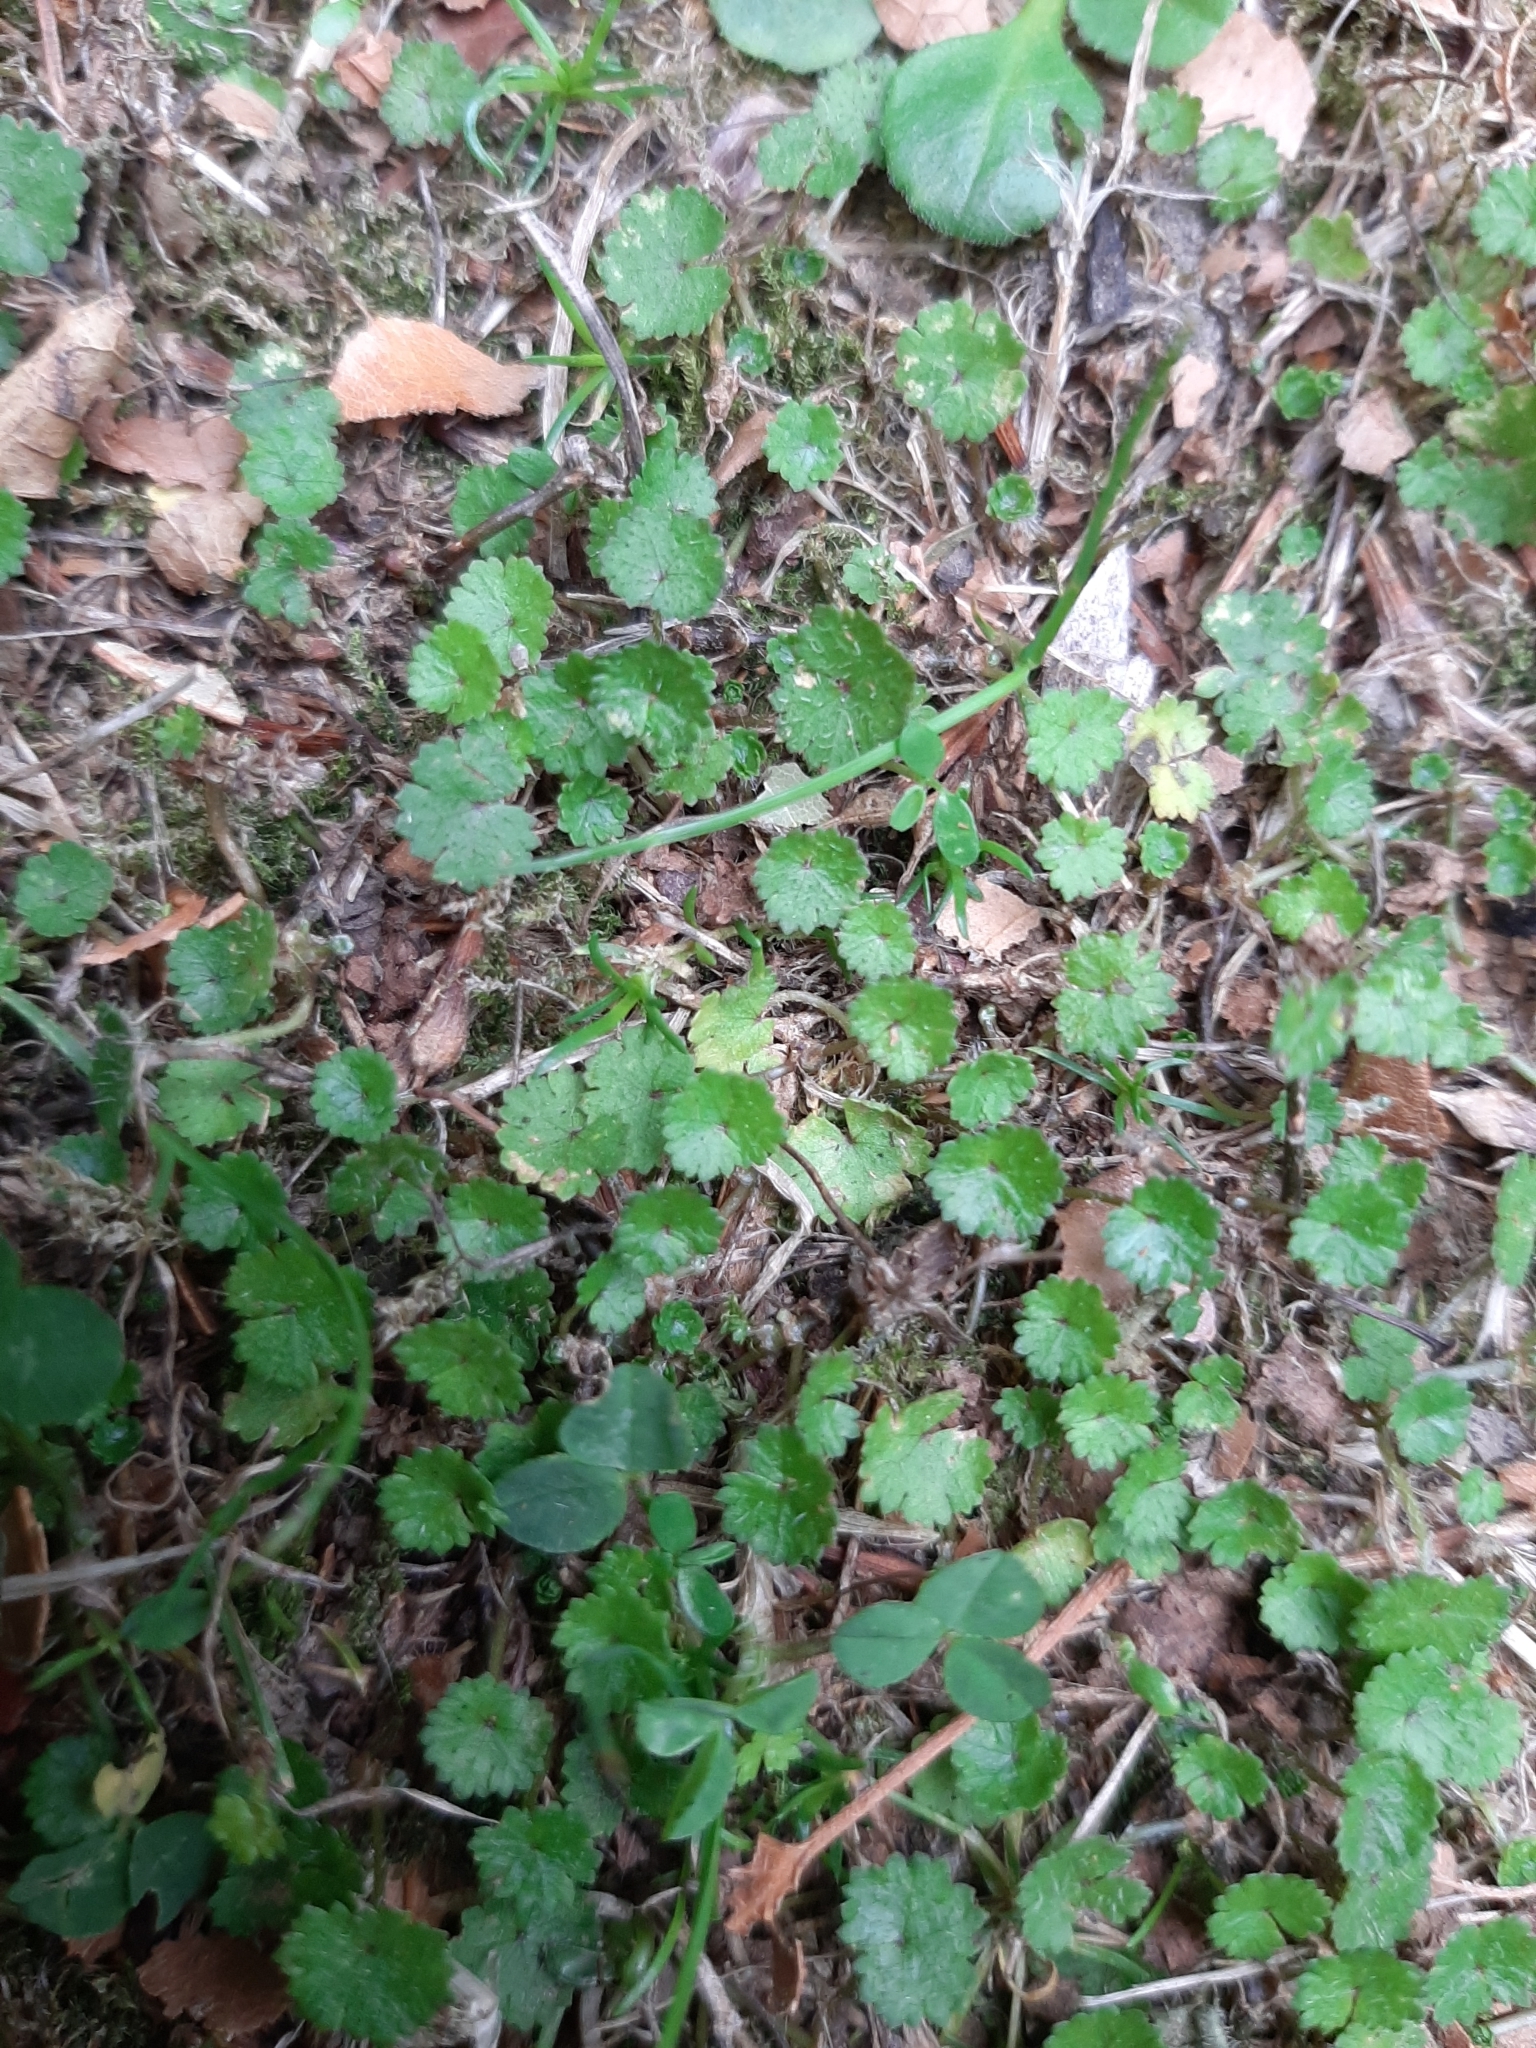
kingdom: Plantae
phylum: Tracheophyta
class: Magnoliopsida
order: Apiales
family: Araliaceae
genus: Hydrocotyle
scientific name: Hydrocotyle microphylla
